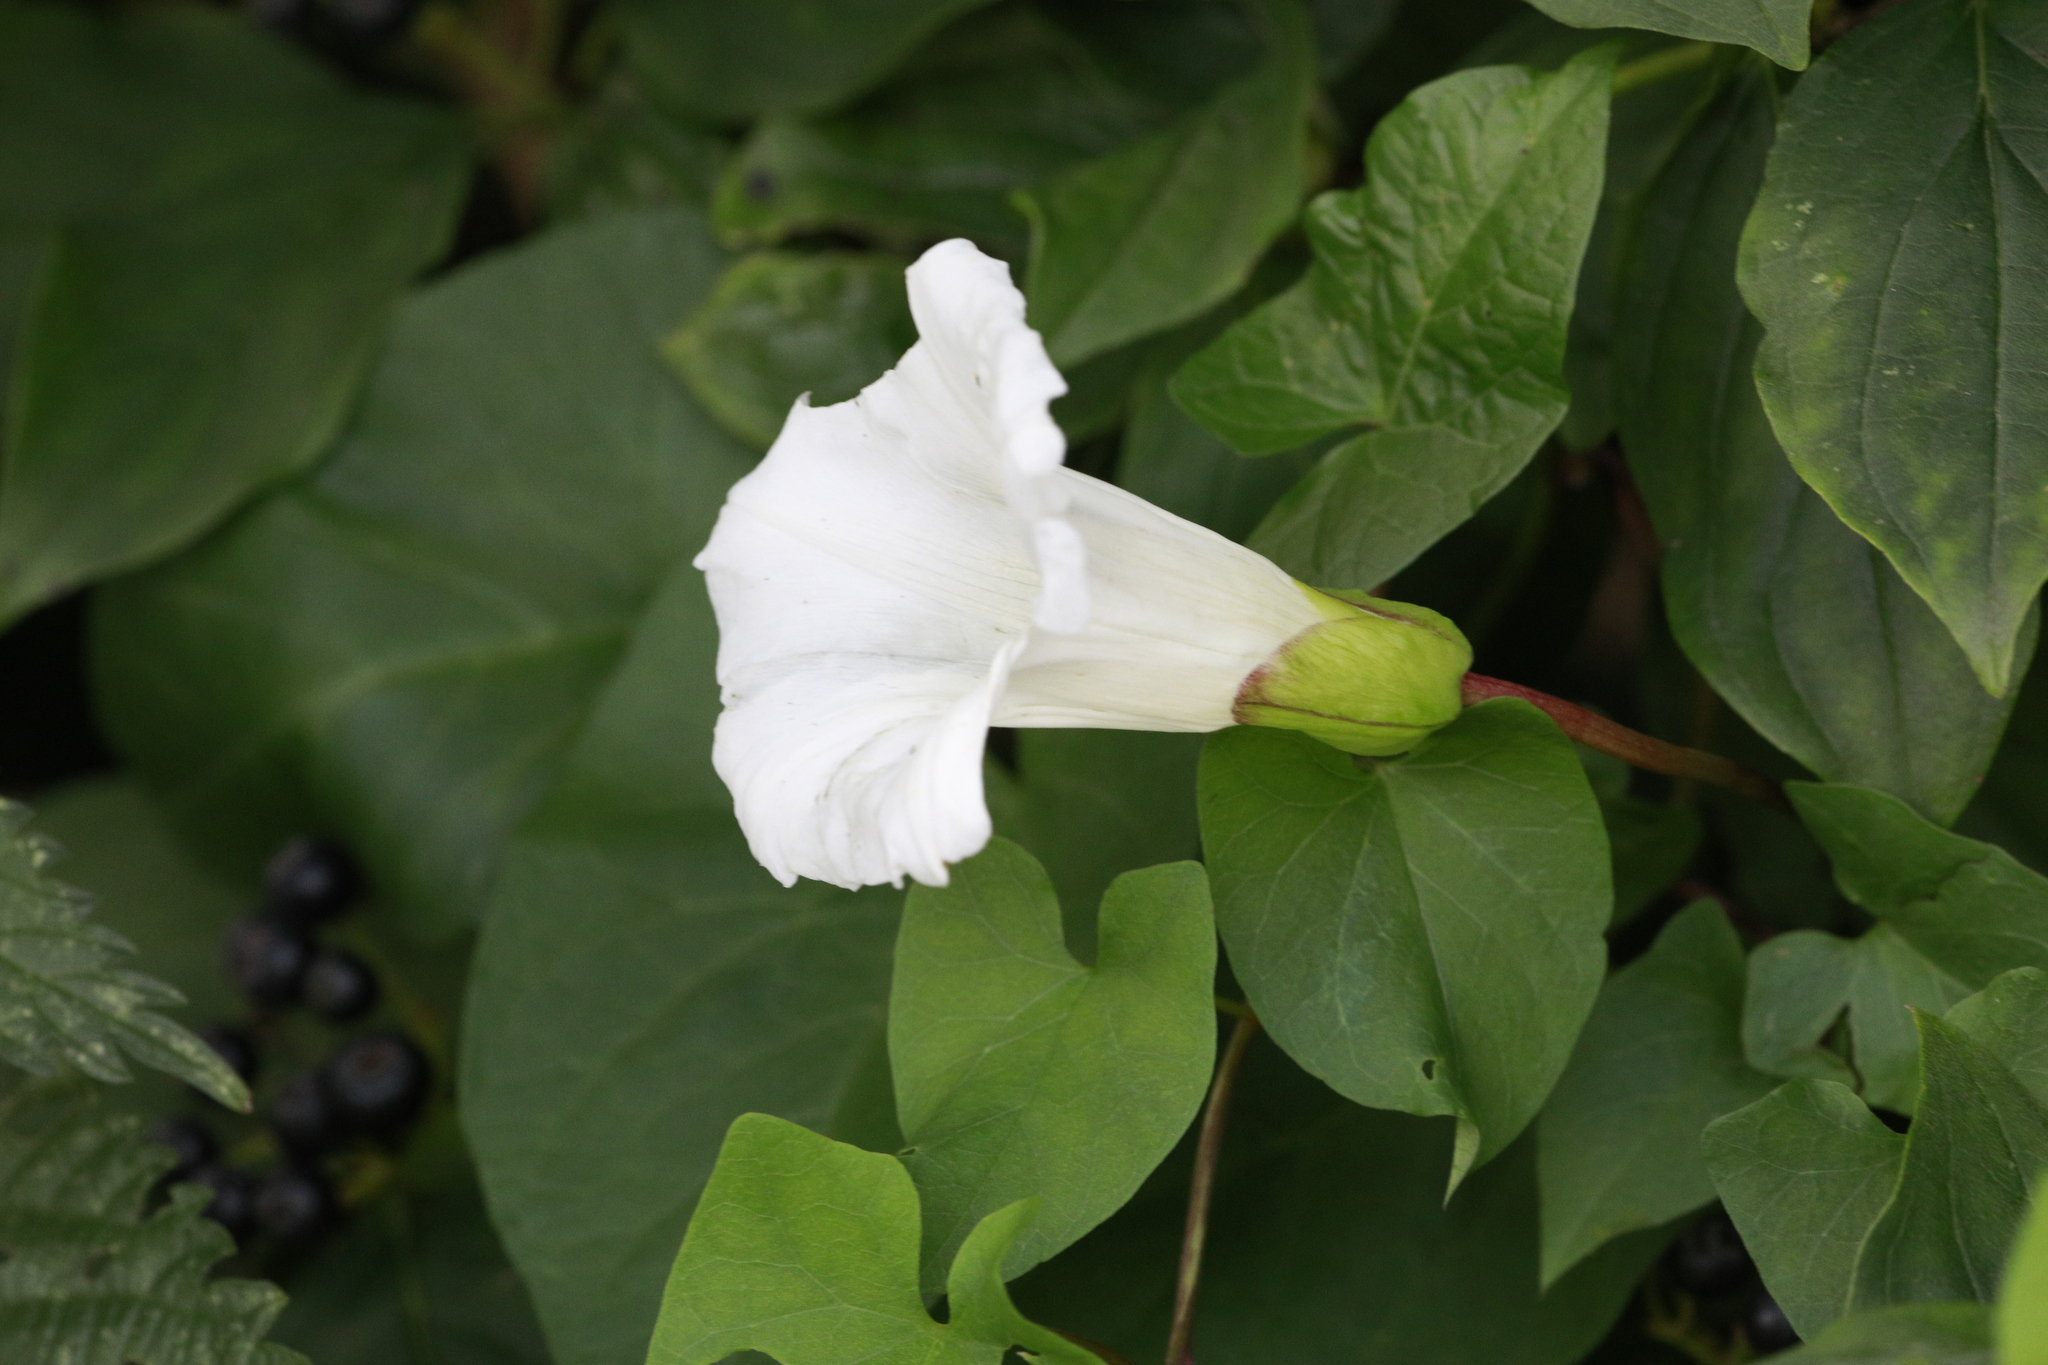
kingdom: Plantae
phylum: Tracheophyta
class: Magnoliopsida
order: Solanales
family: Convolvulaceae
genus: Calystegia
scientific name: Calystegia silvatica
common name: Large bindweed
